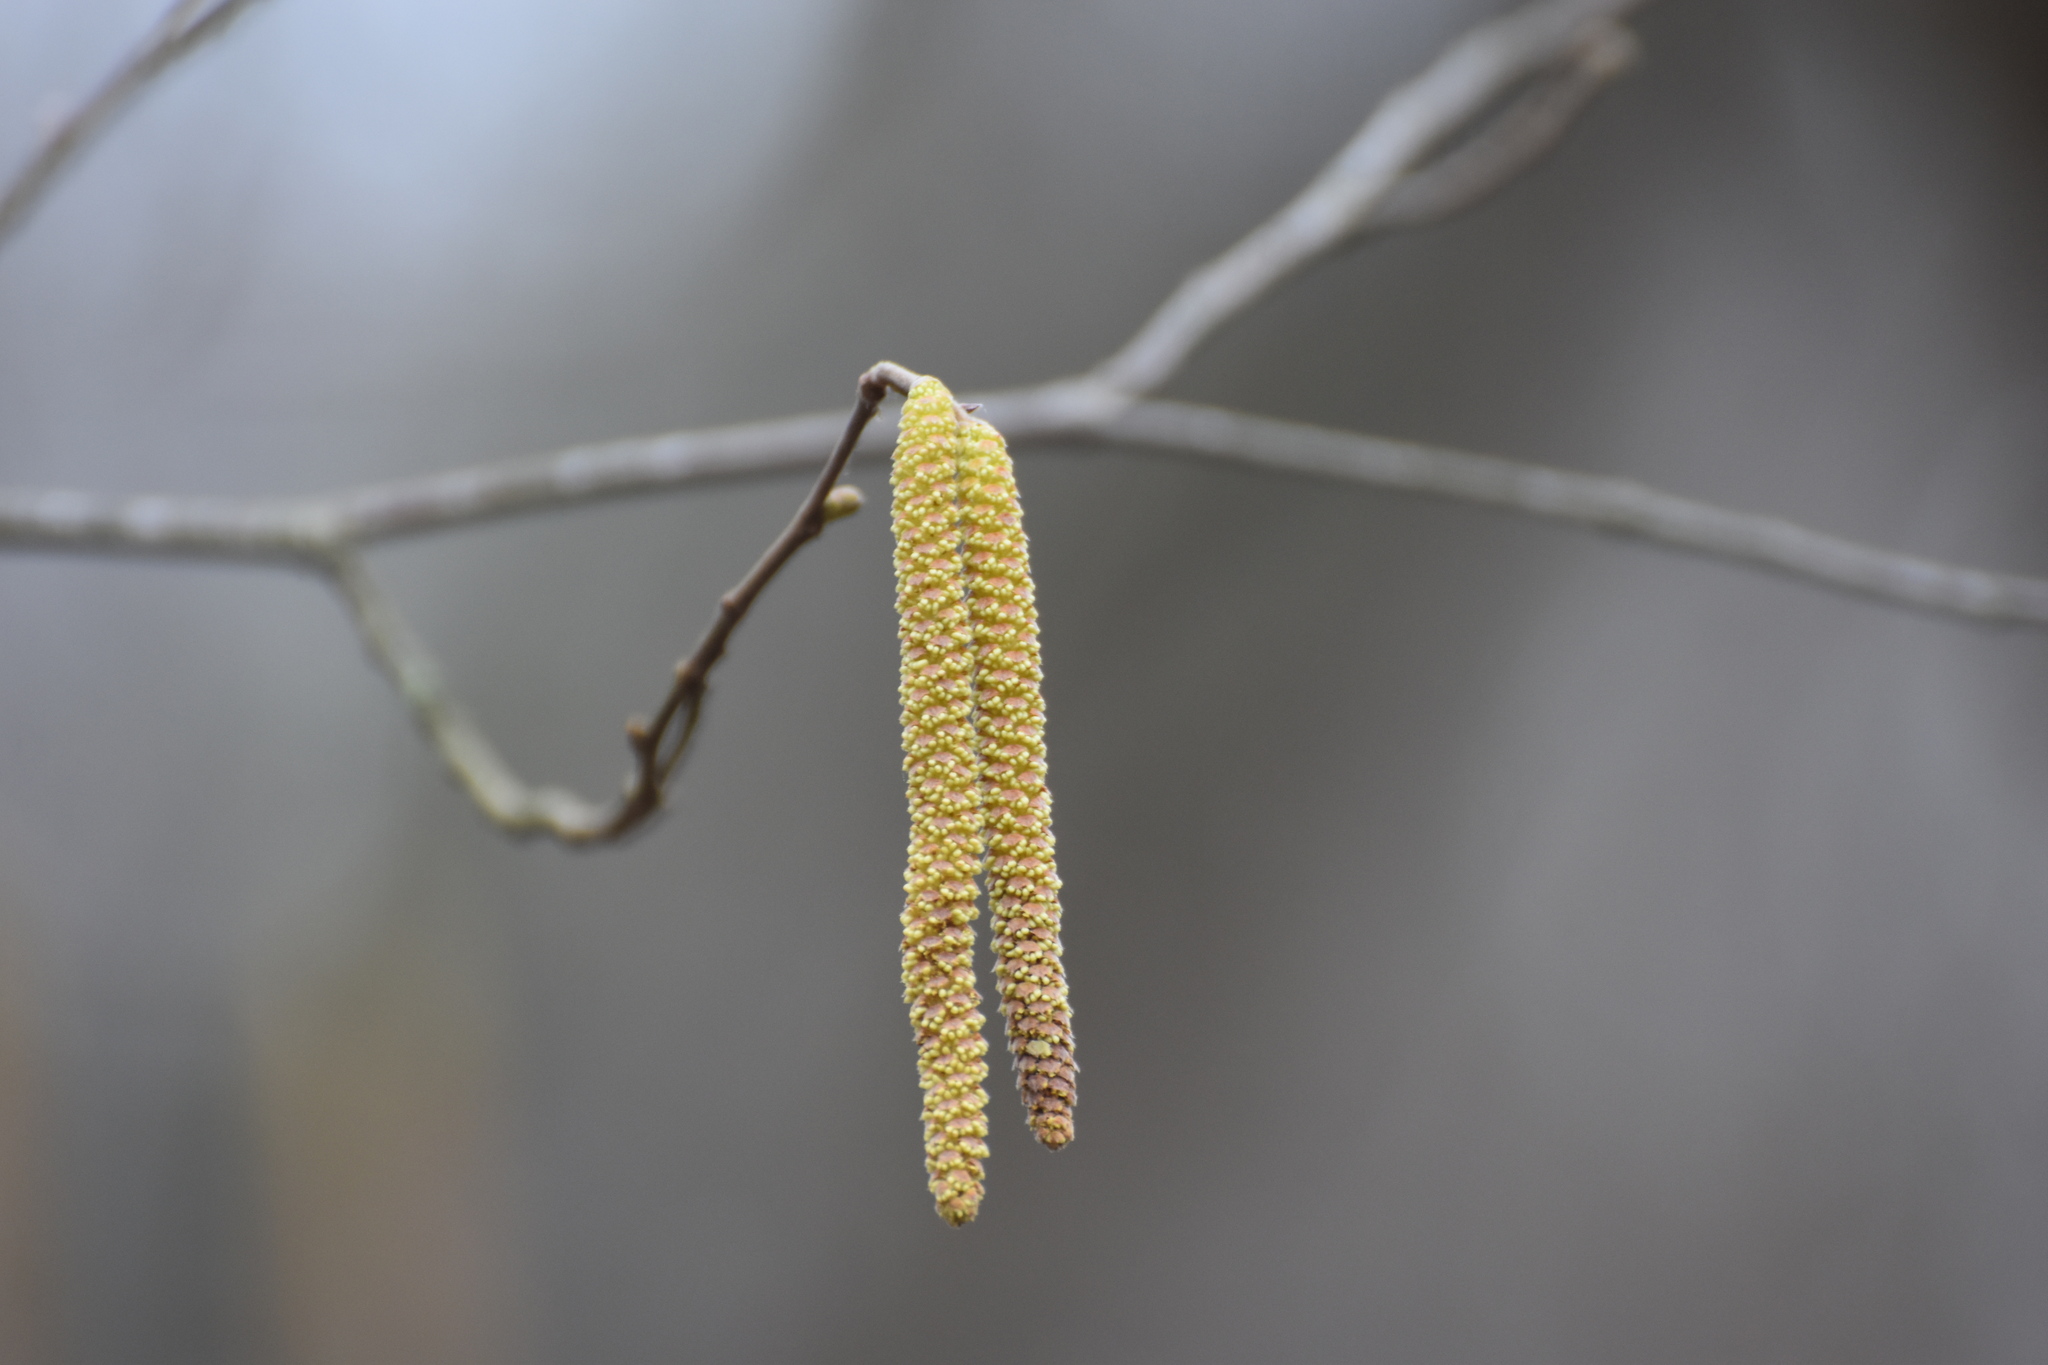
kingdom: Plantae
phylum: Tracheophyta
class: Magnoliopsida
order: Fagales
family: Betulaceae
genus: Corylus
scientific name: Corylus avellana
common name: European hazel
